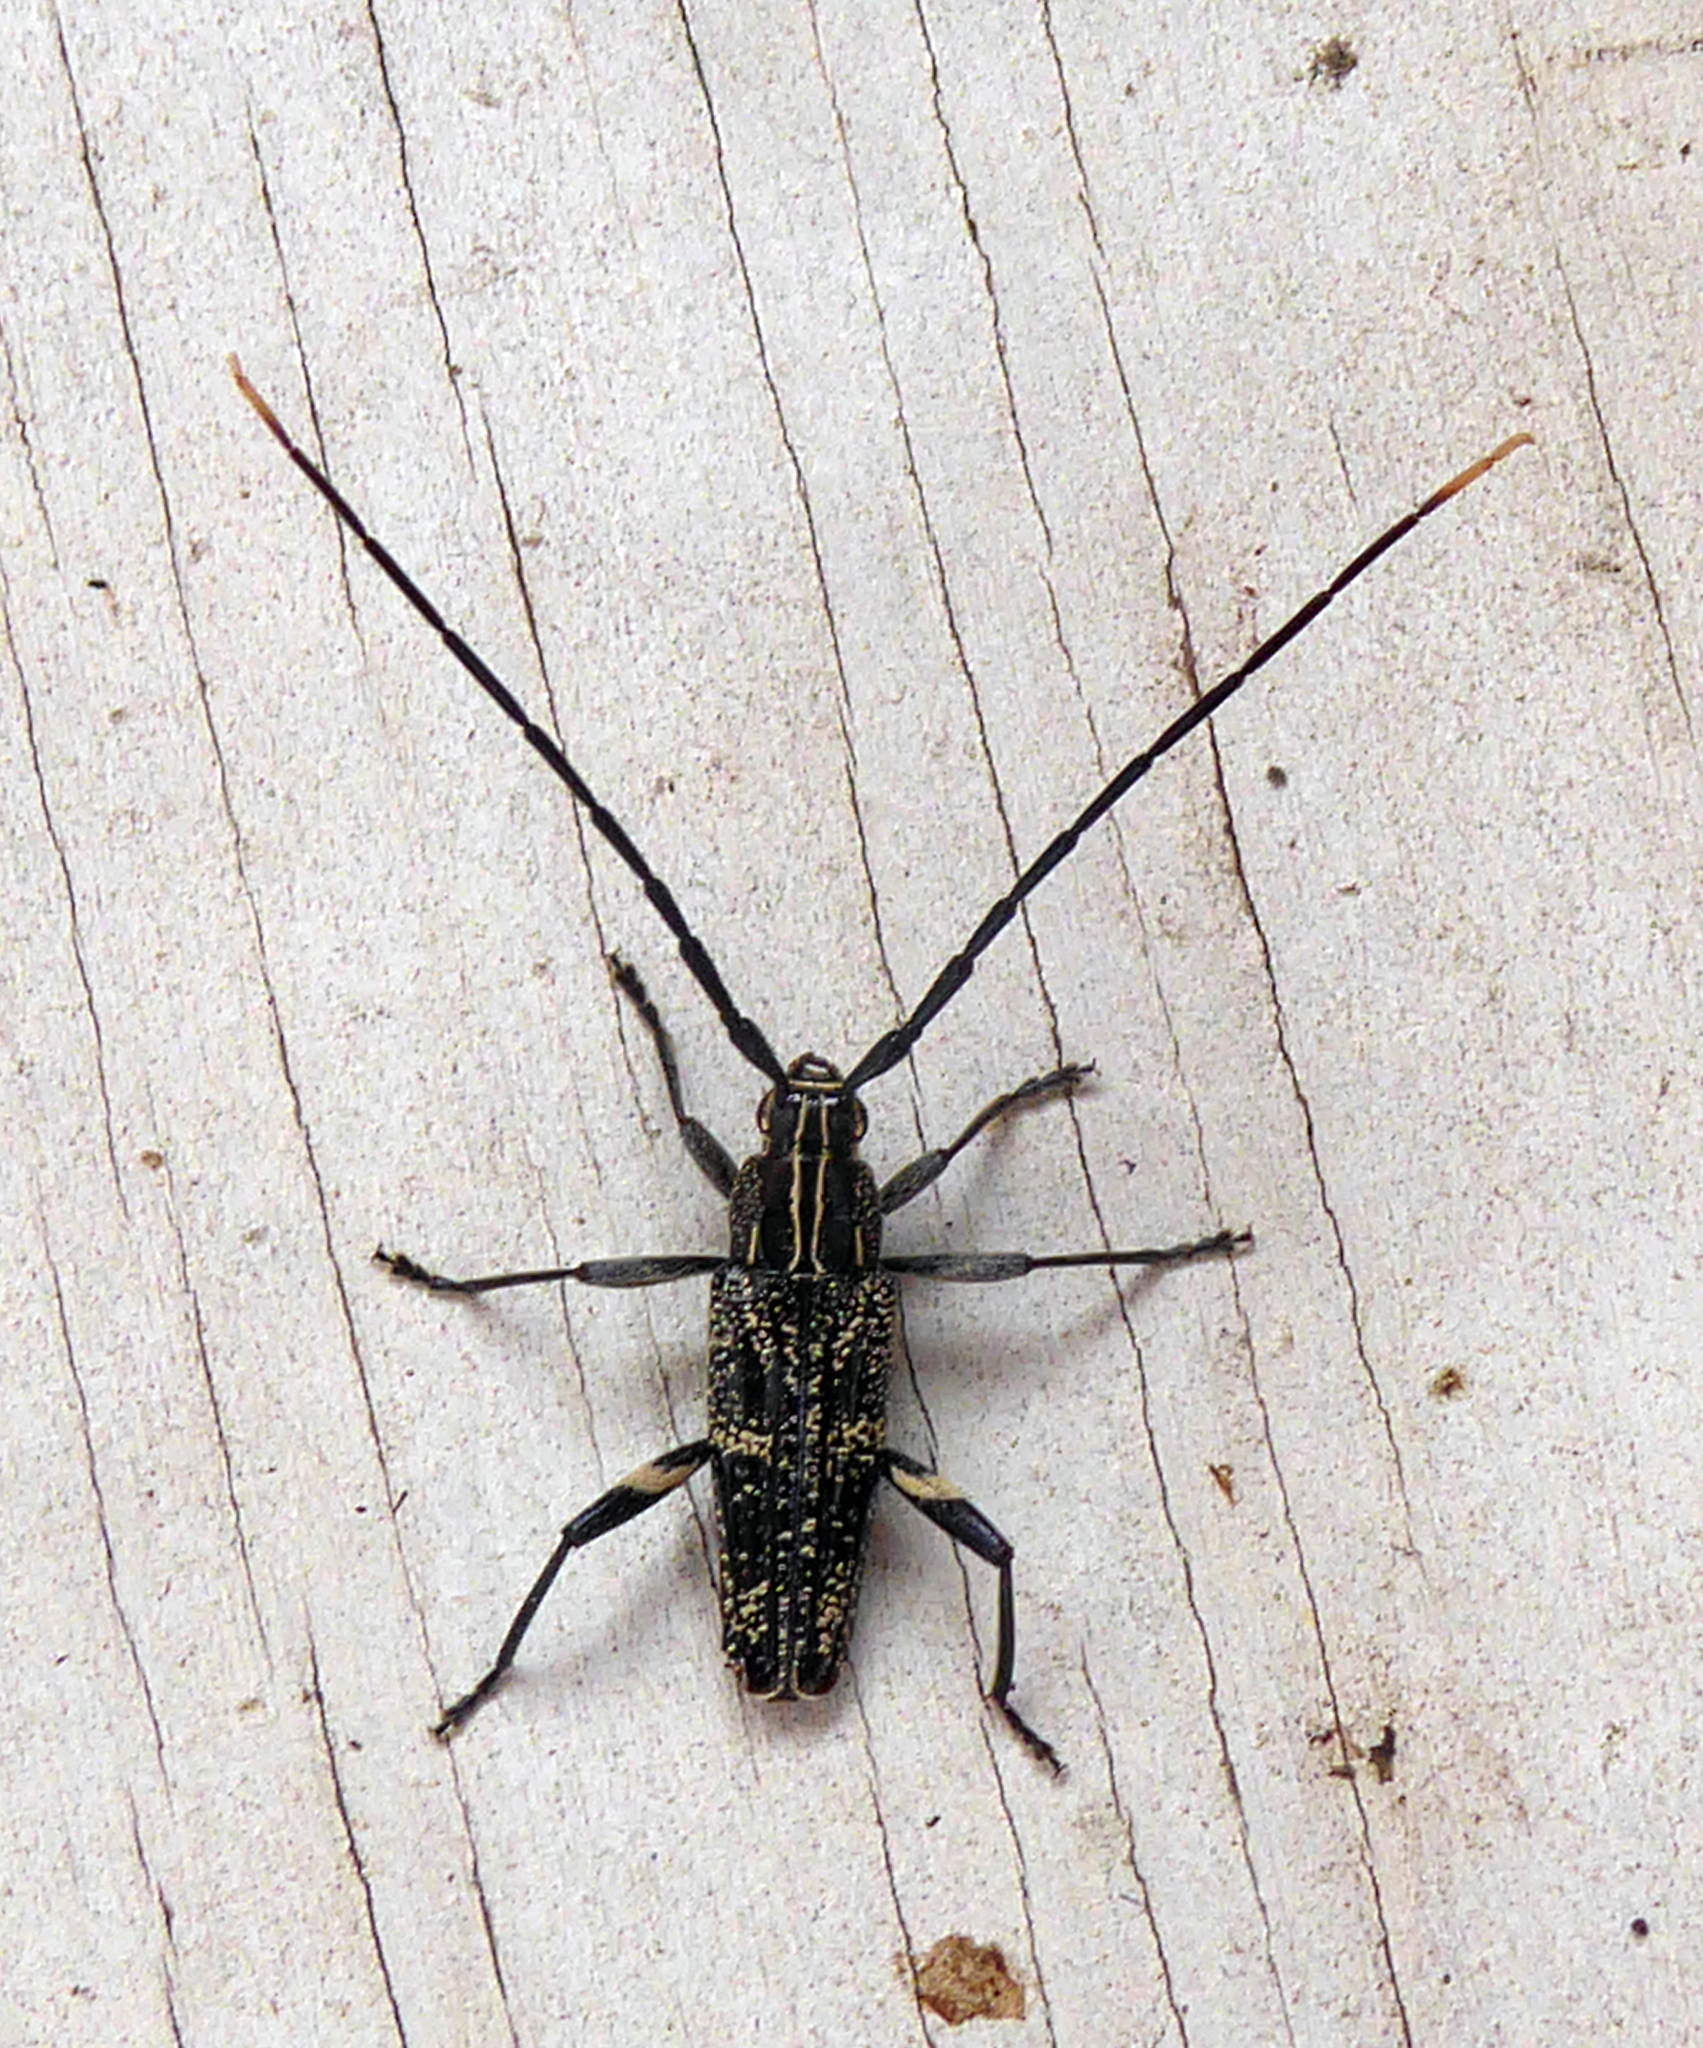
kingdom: Animalia
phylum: Arthropoda
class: Insecta
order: Coleoptera
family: Cerambycidae
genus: Coptomma
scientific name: Coptomma variegatum
